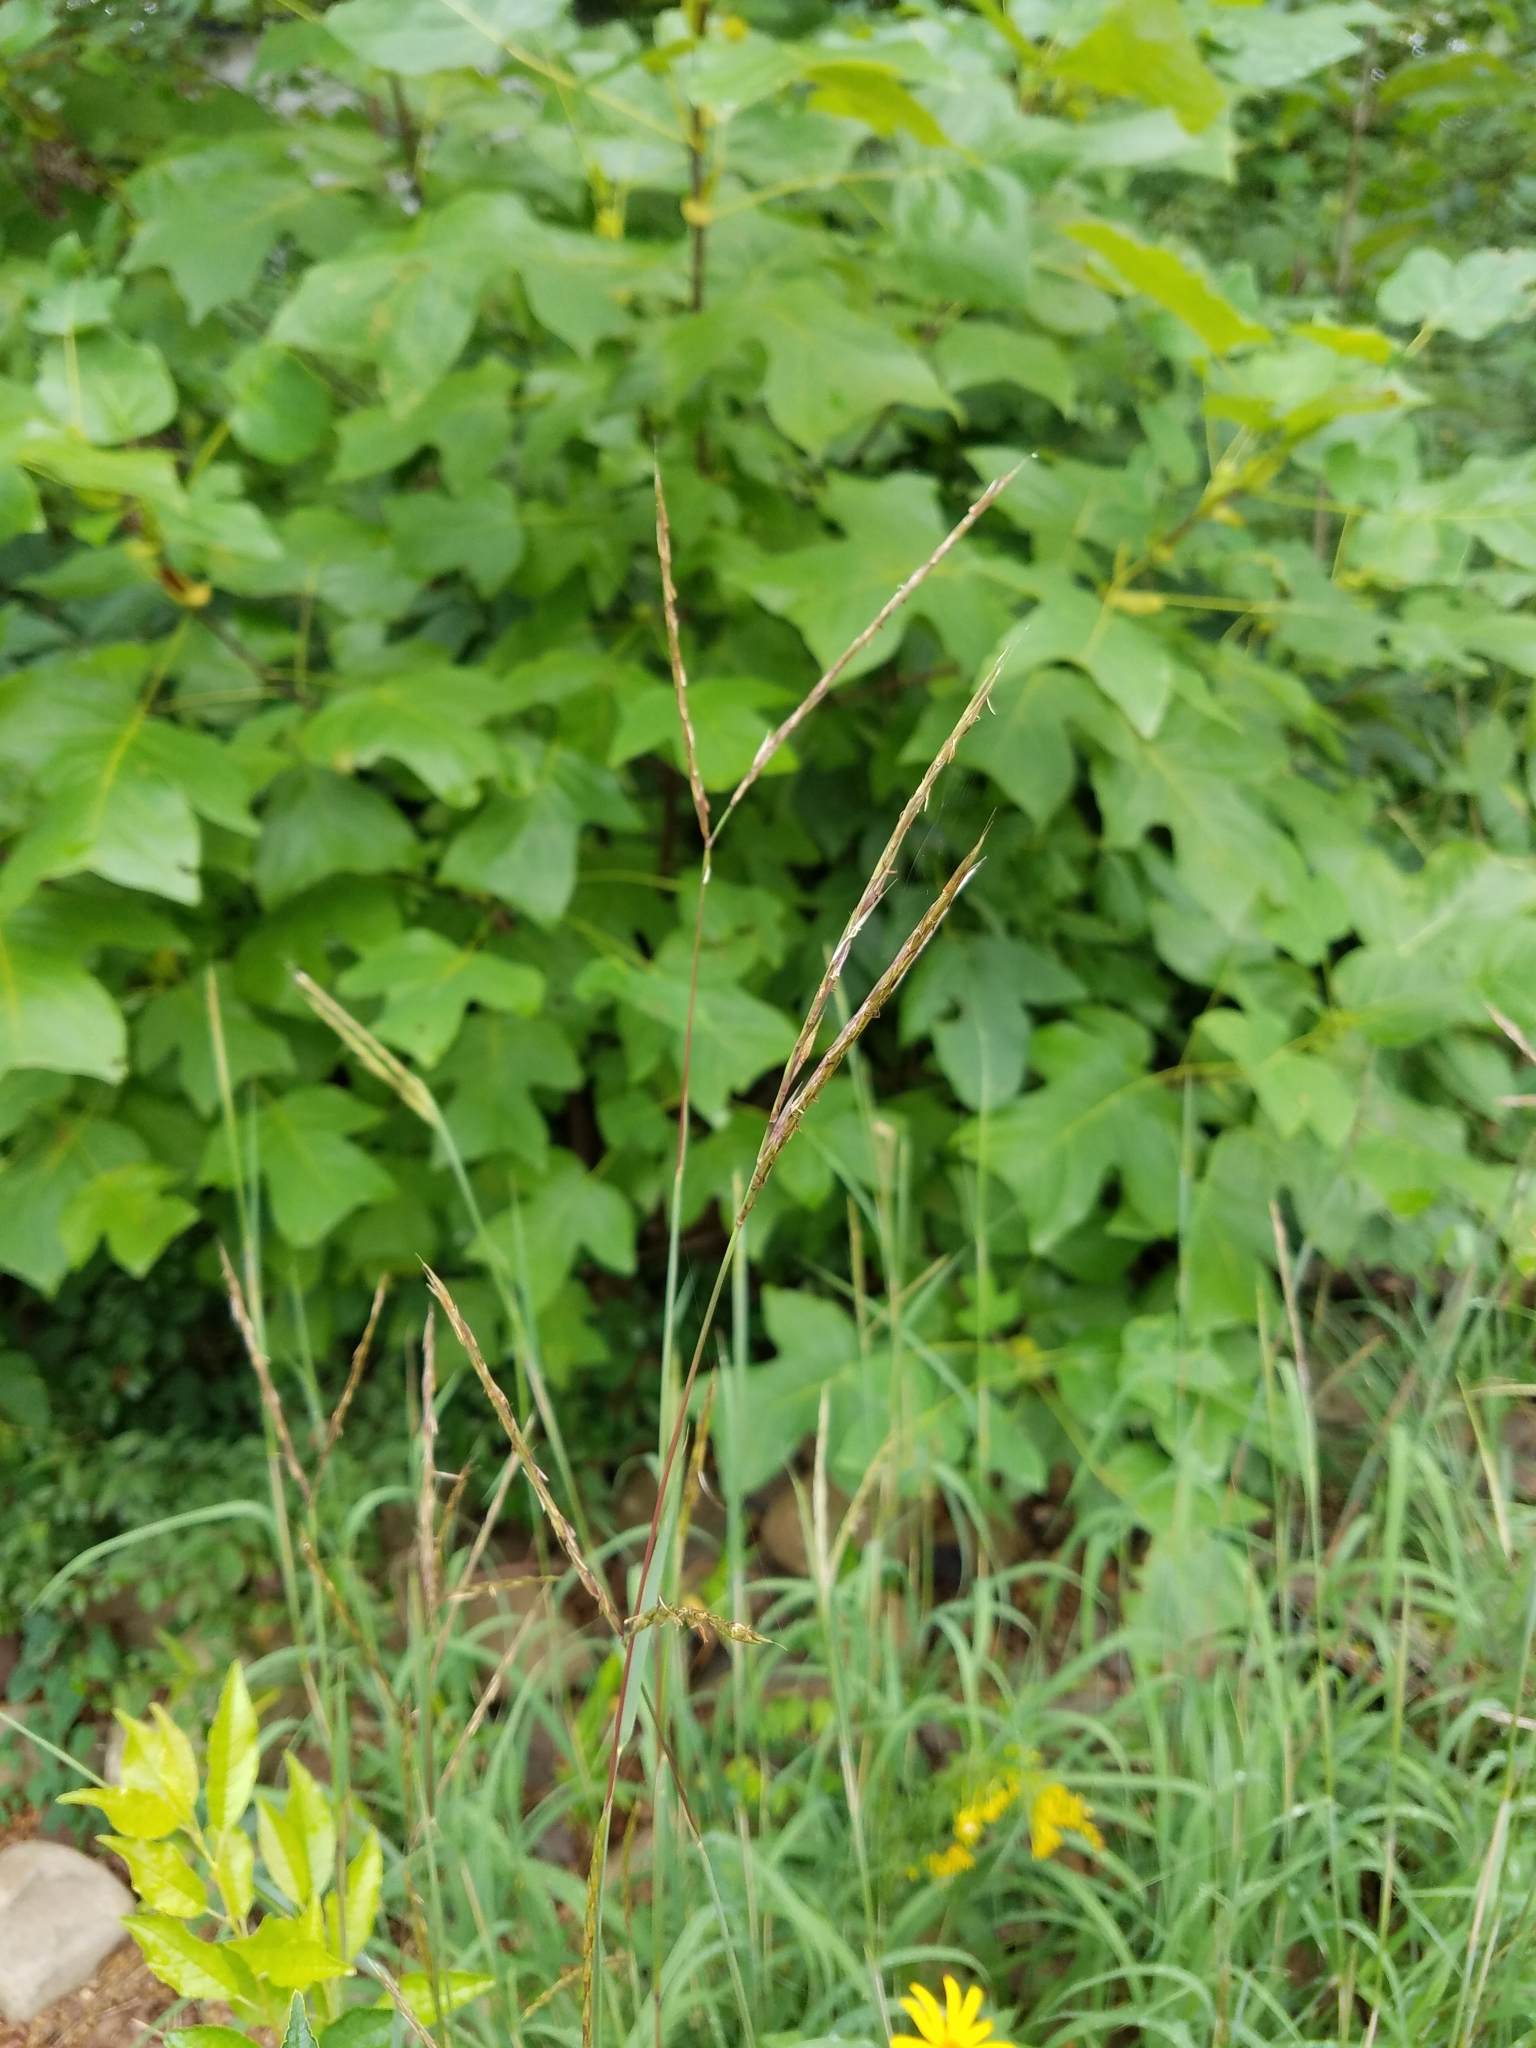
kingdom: Plantae
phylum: Tracheophyta
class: Liliopsida
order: Poales
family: Poaceae
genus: Andropogon
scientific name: Andropogon gerardi
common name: Big bluestem
